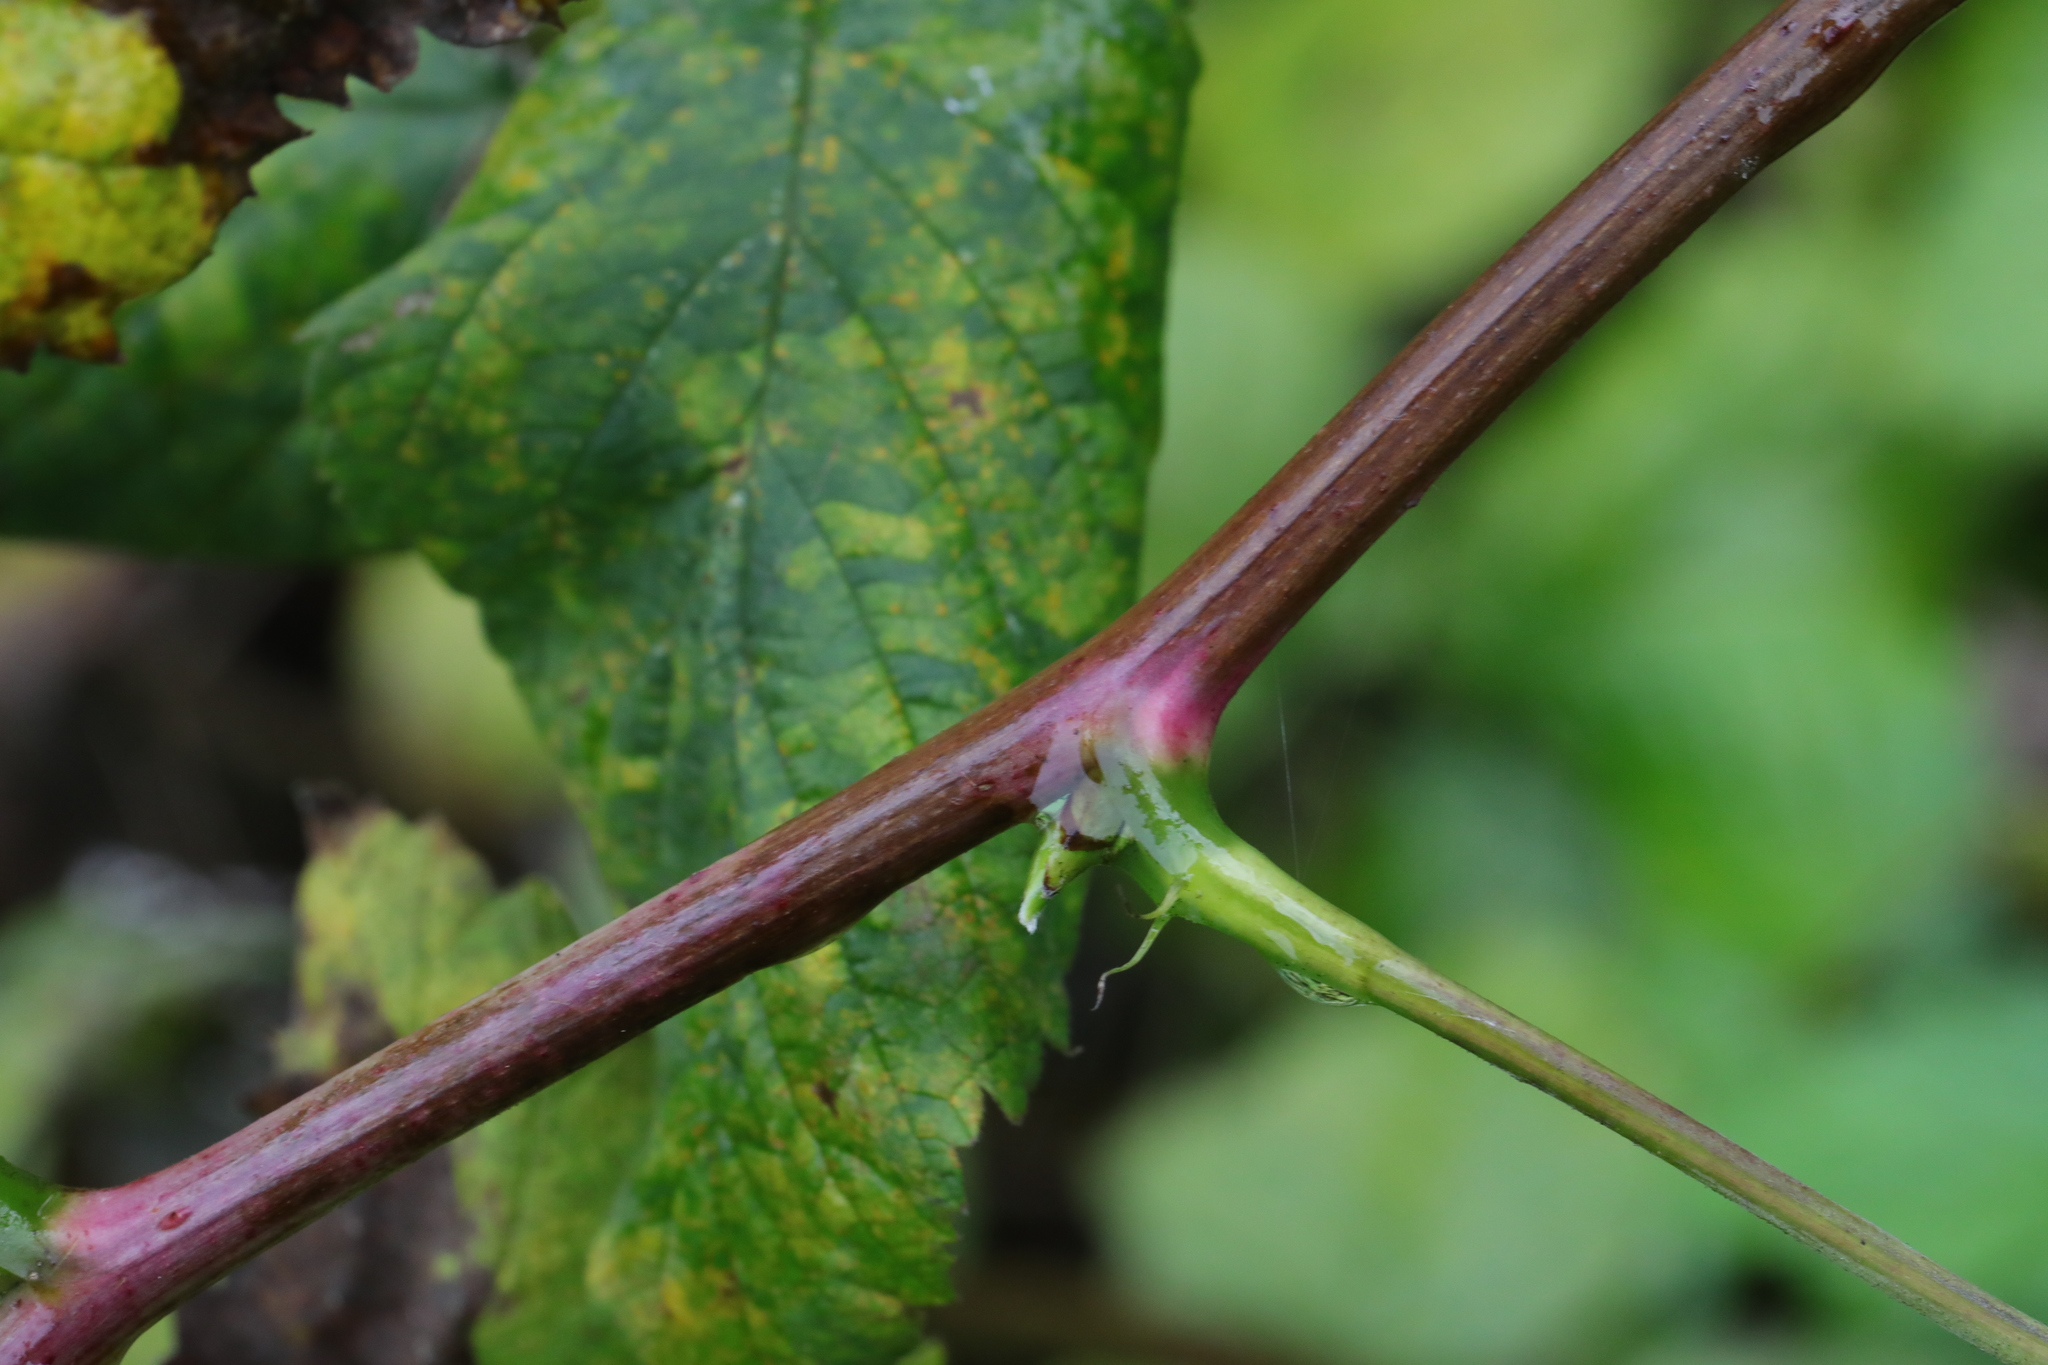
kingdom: Plantae
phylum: Tracheophyta
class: Magnoliopsida
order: Rosales
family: Rosaceae
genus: Rubus
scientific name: Rubus idaeus
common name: Raspberry
